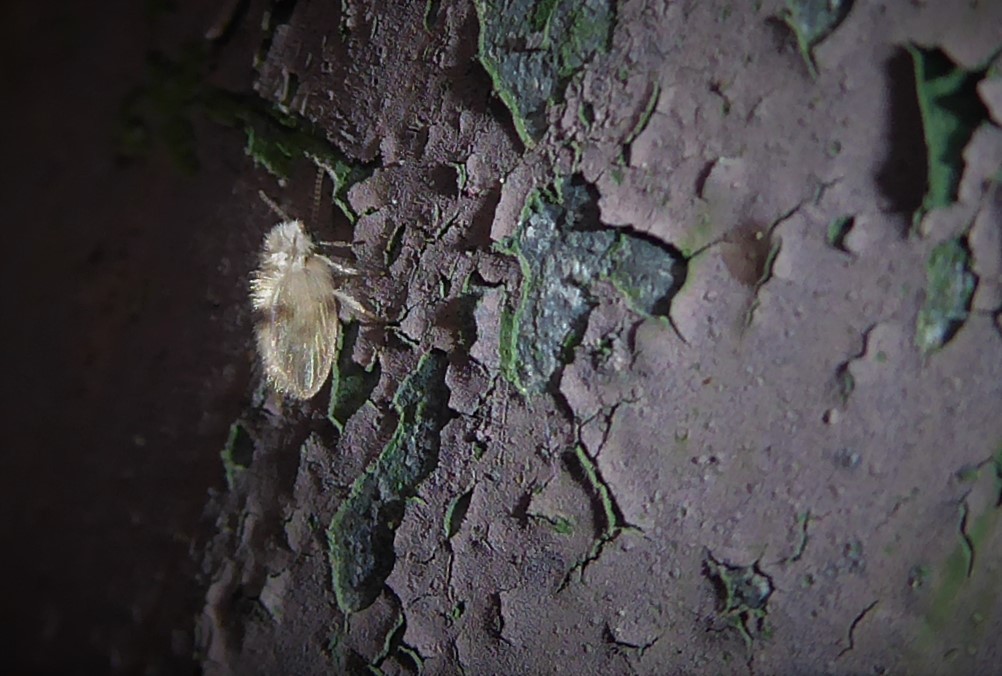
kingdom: Animalia
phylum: Arthropoda
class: Insecta
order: Diptera
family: Psychodidae
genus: Psychoda
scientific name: Psychoda sigma
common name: Moth fly
